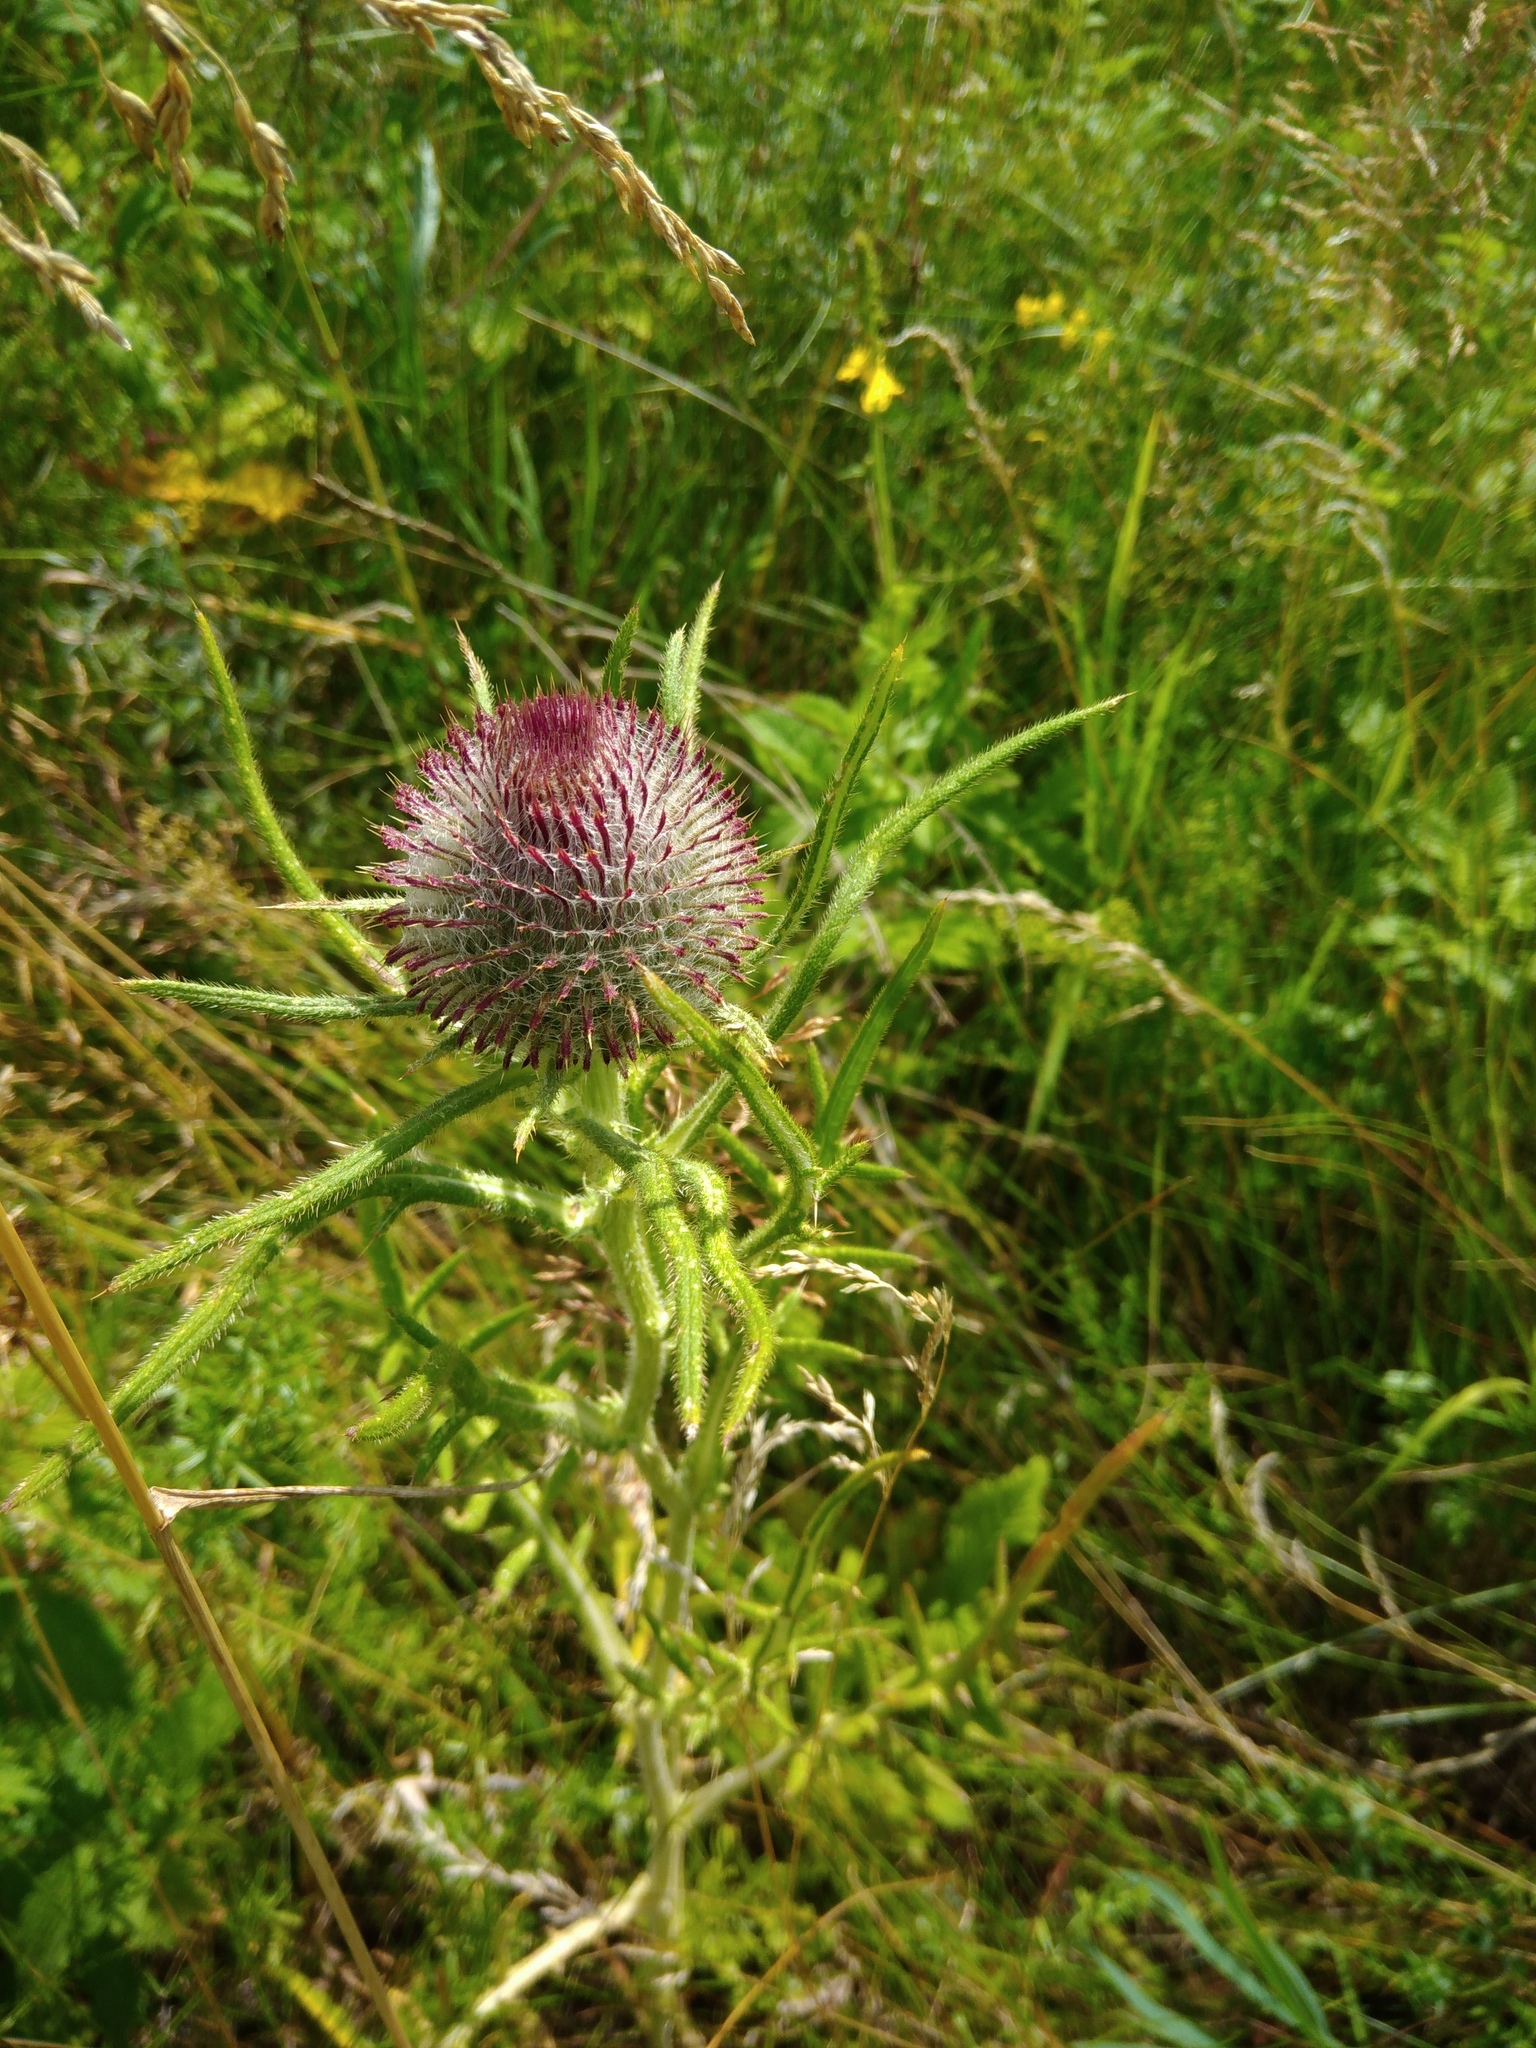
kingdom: Plantae
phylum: Tracheophyta
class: Magnoliopsida
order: Asterales
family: Asteraceae
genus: Lophiolepis
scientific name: Lophiolepis decussata
